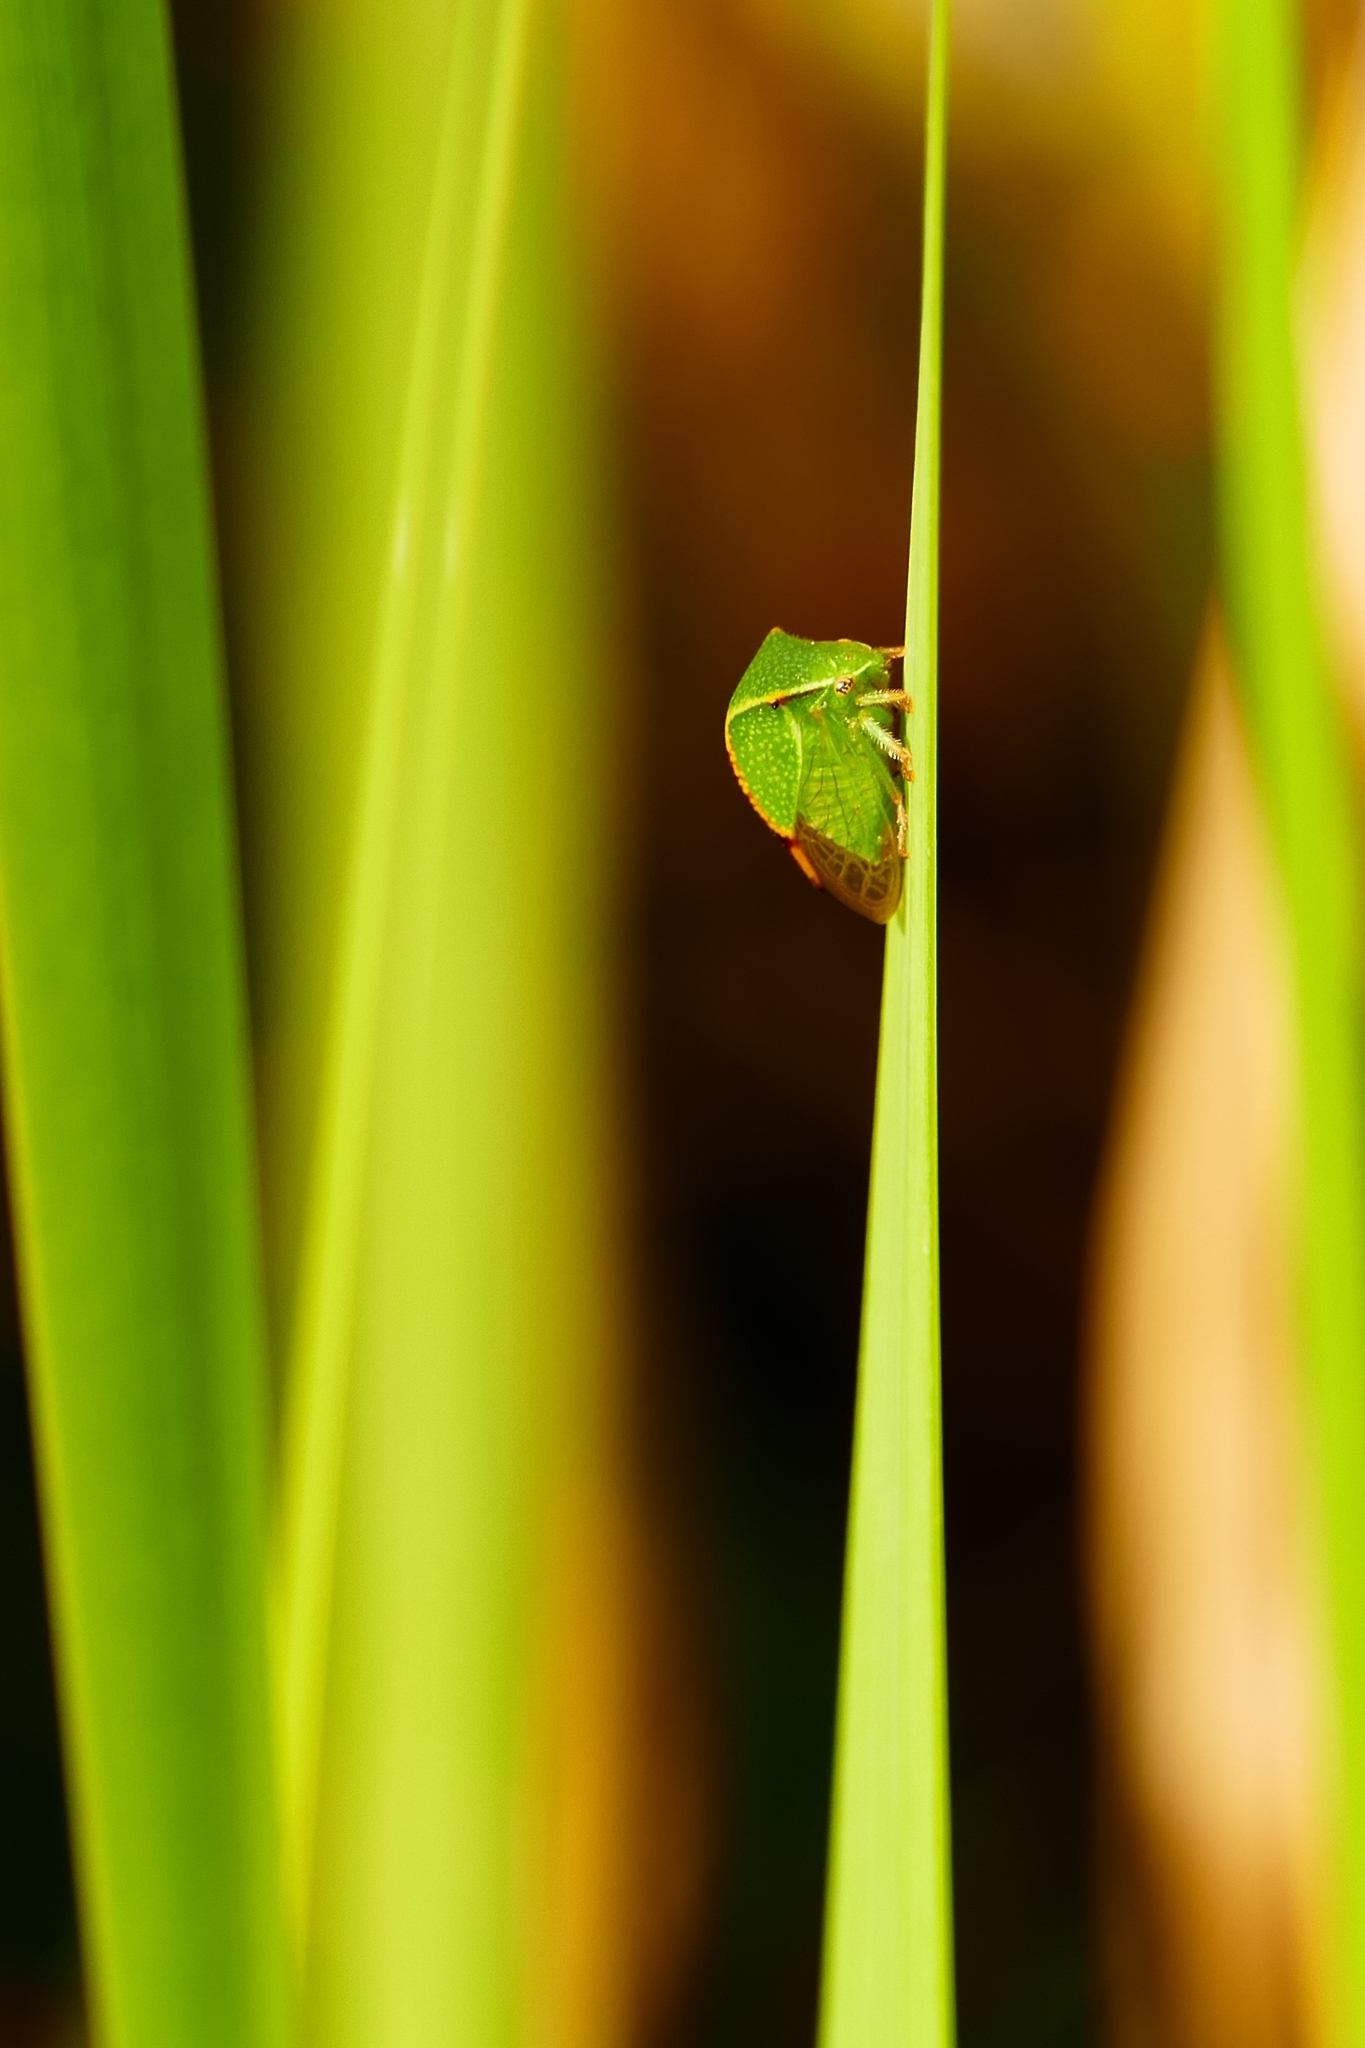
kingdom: Animalia
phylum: Arthropoda
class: Insecta
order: Hemiptera
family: Membracidae
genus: Stictocephala
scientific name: Stictocephala bisonia
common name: American buffalo treehopper
